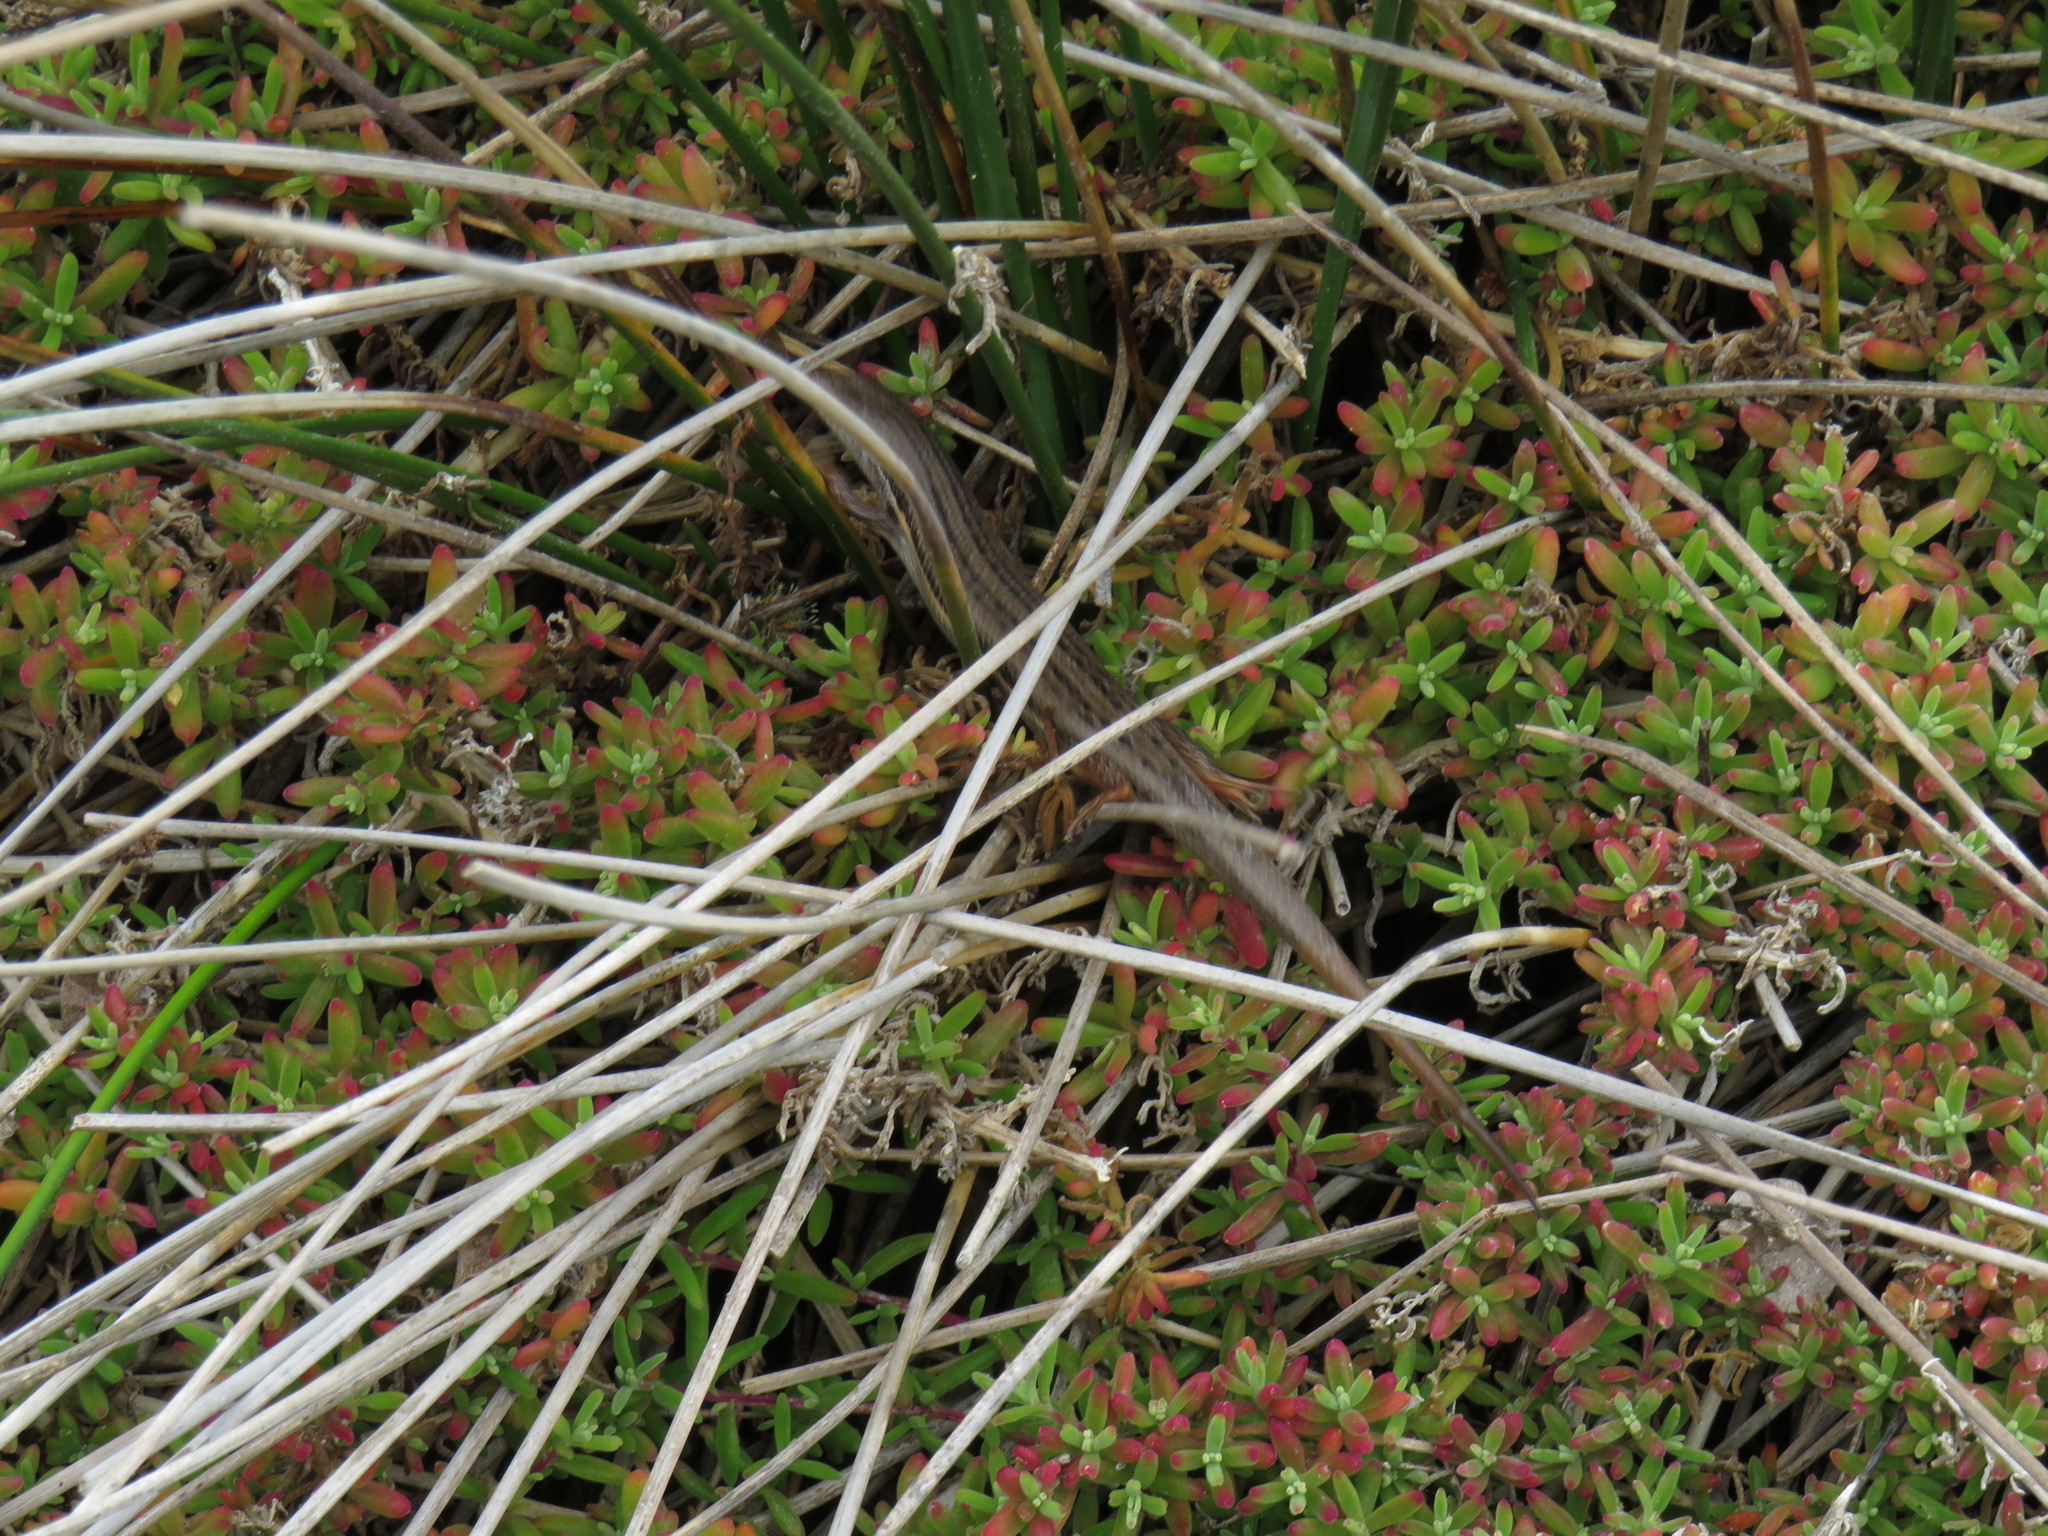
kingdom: Animalia
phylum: Chordata
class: Squamata
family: Scincidae
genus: Trachylepis
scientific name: Trachylepis homalocephala
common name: Red-sided skink
